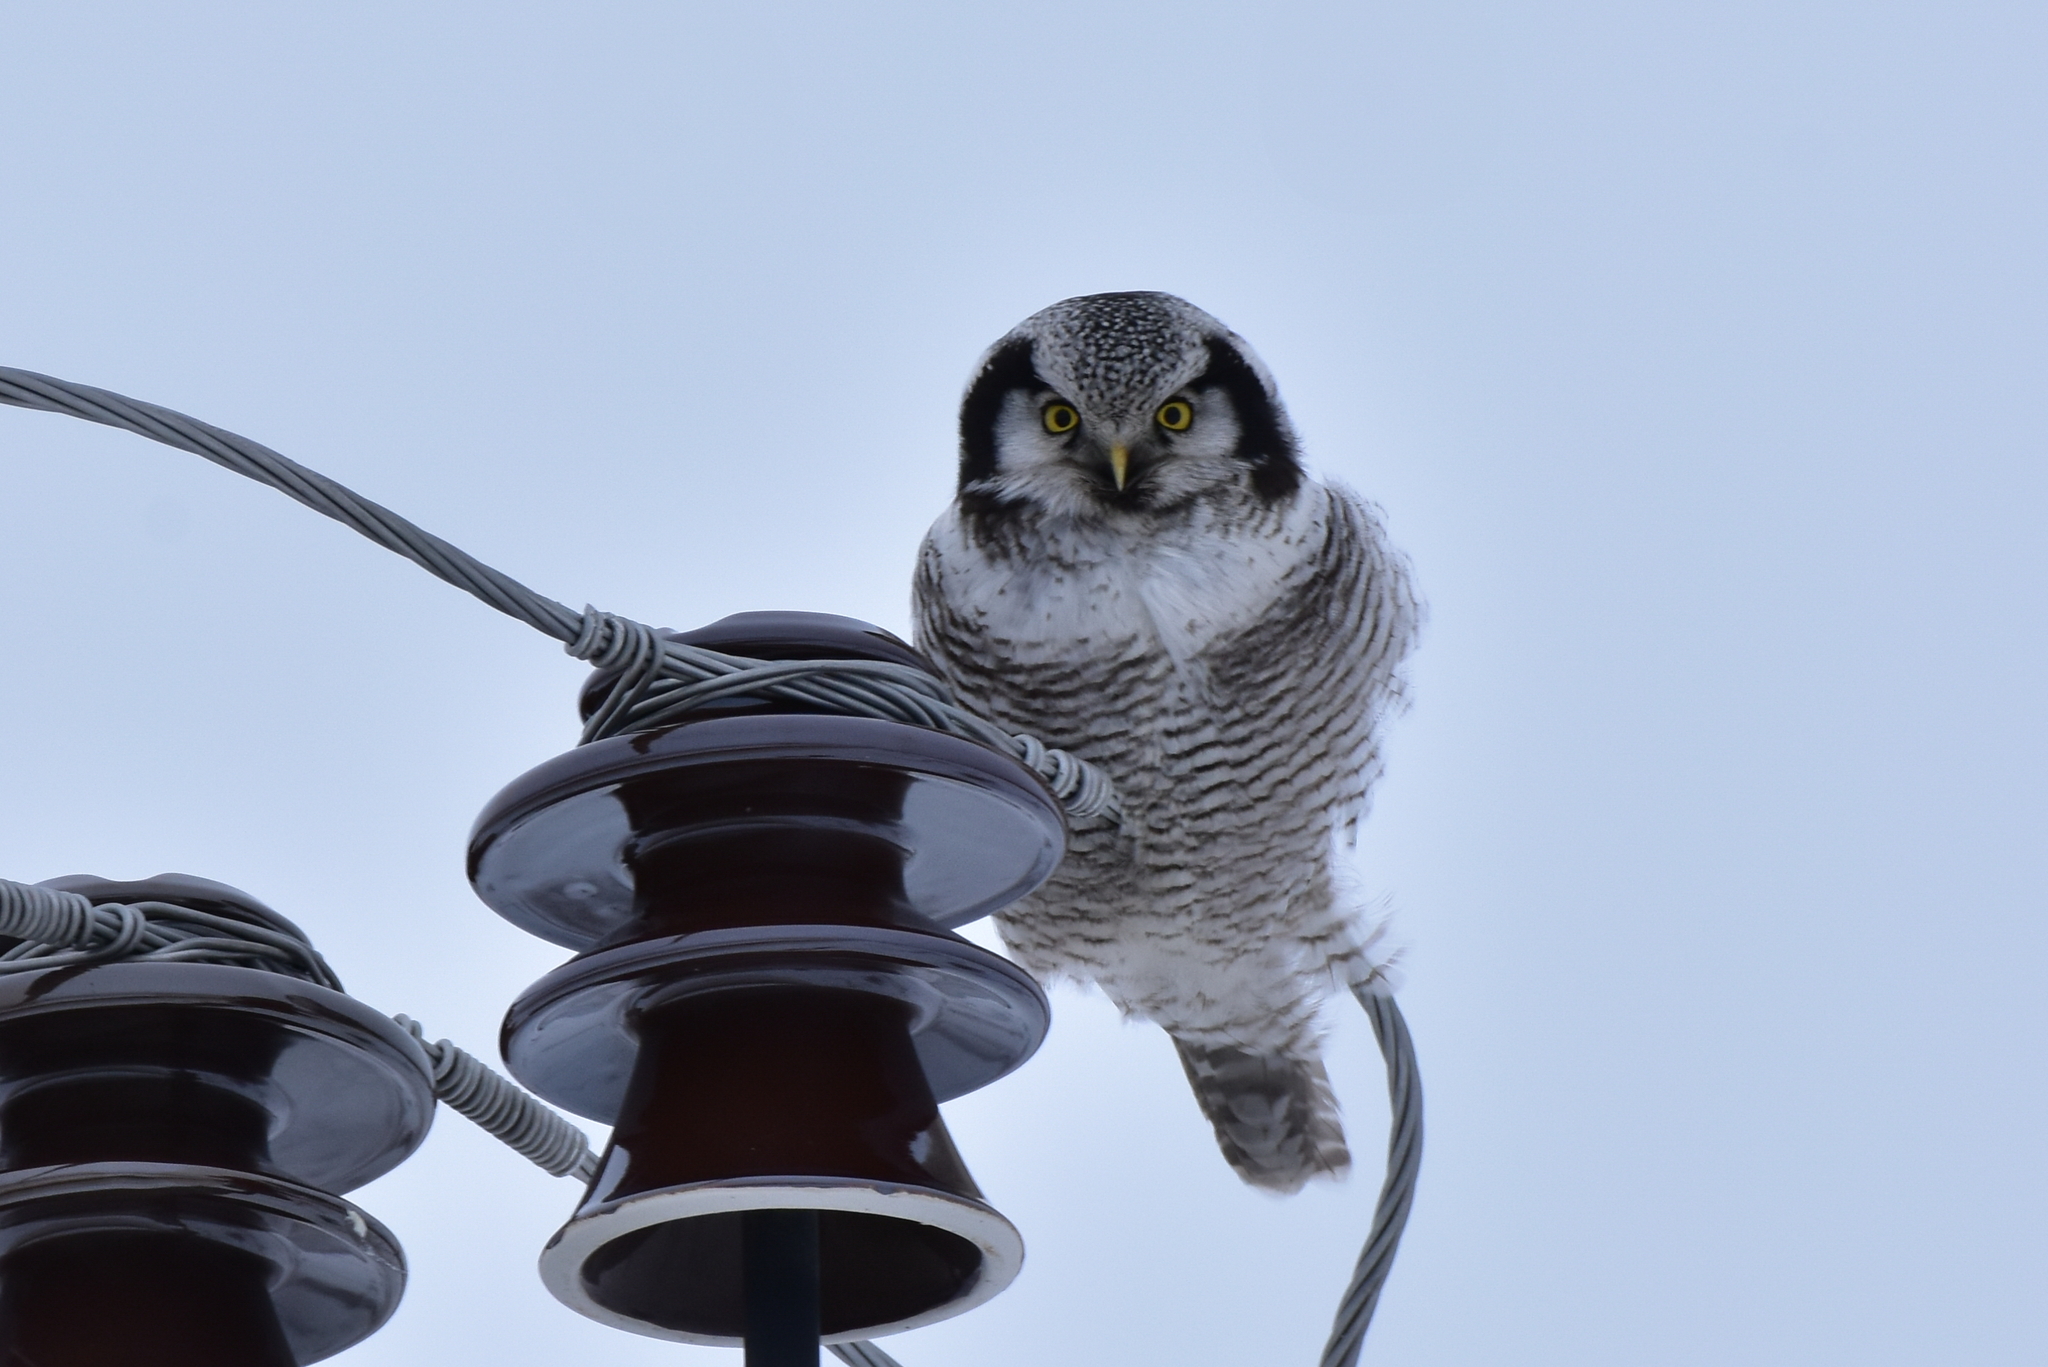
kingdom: Animalia
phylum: Chordata
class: Aves
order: Strigiformes
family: Strigidae
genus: Surnia
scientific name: Surnia ulula
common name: Northern hawk-owl
